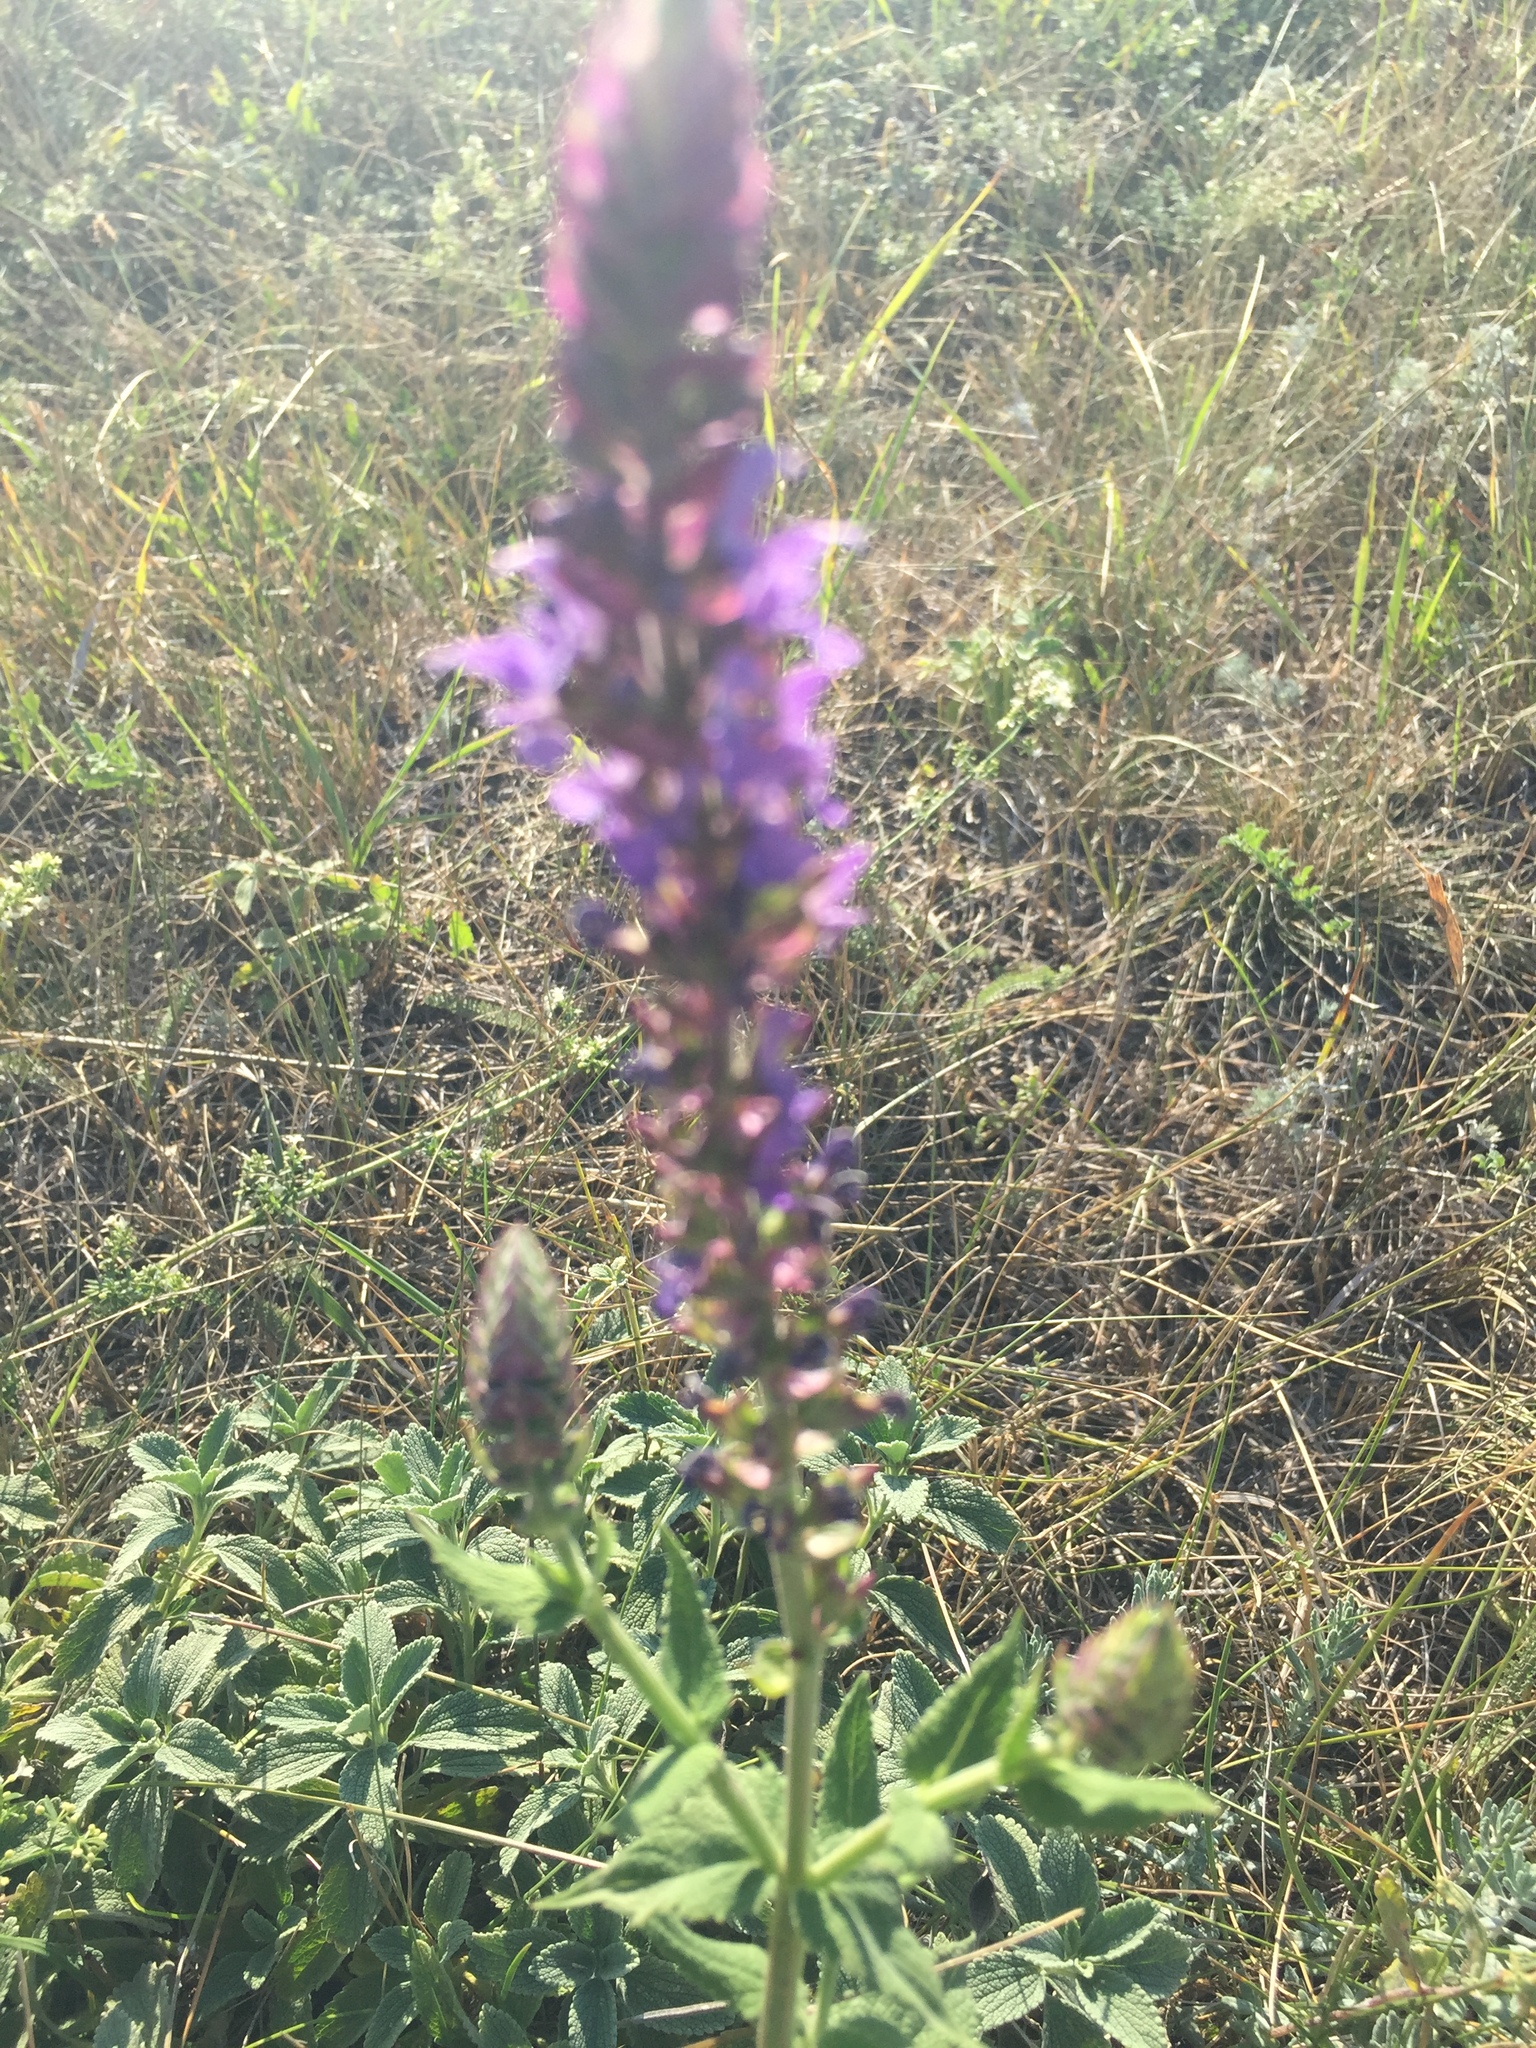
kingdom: Plantae
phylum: Tracheophyta
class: Magnoliopsida
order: Lamiales
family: Lamiaceae
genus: Salvia
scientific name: Salvia nemorosa
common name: Balkan clary
